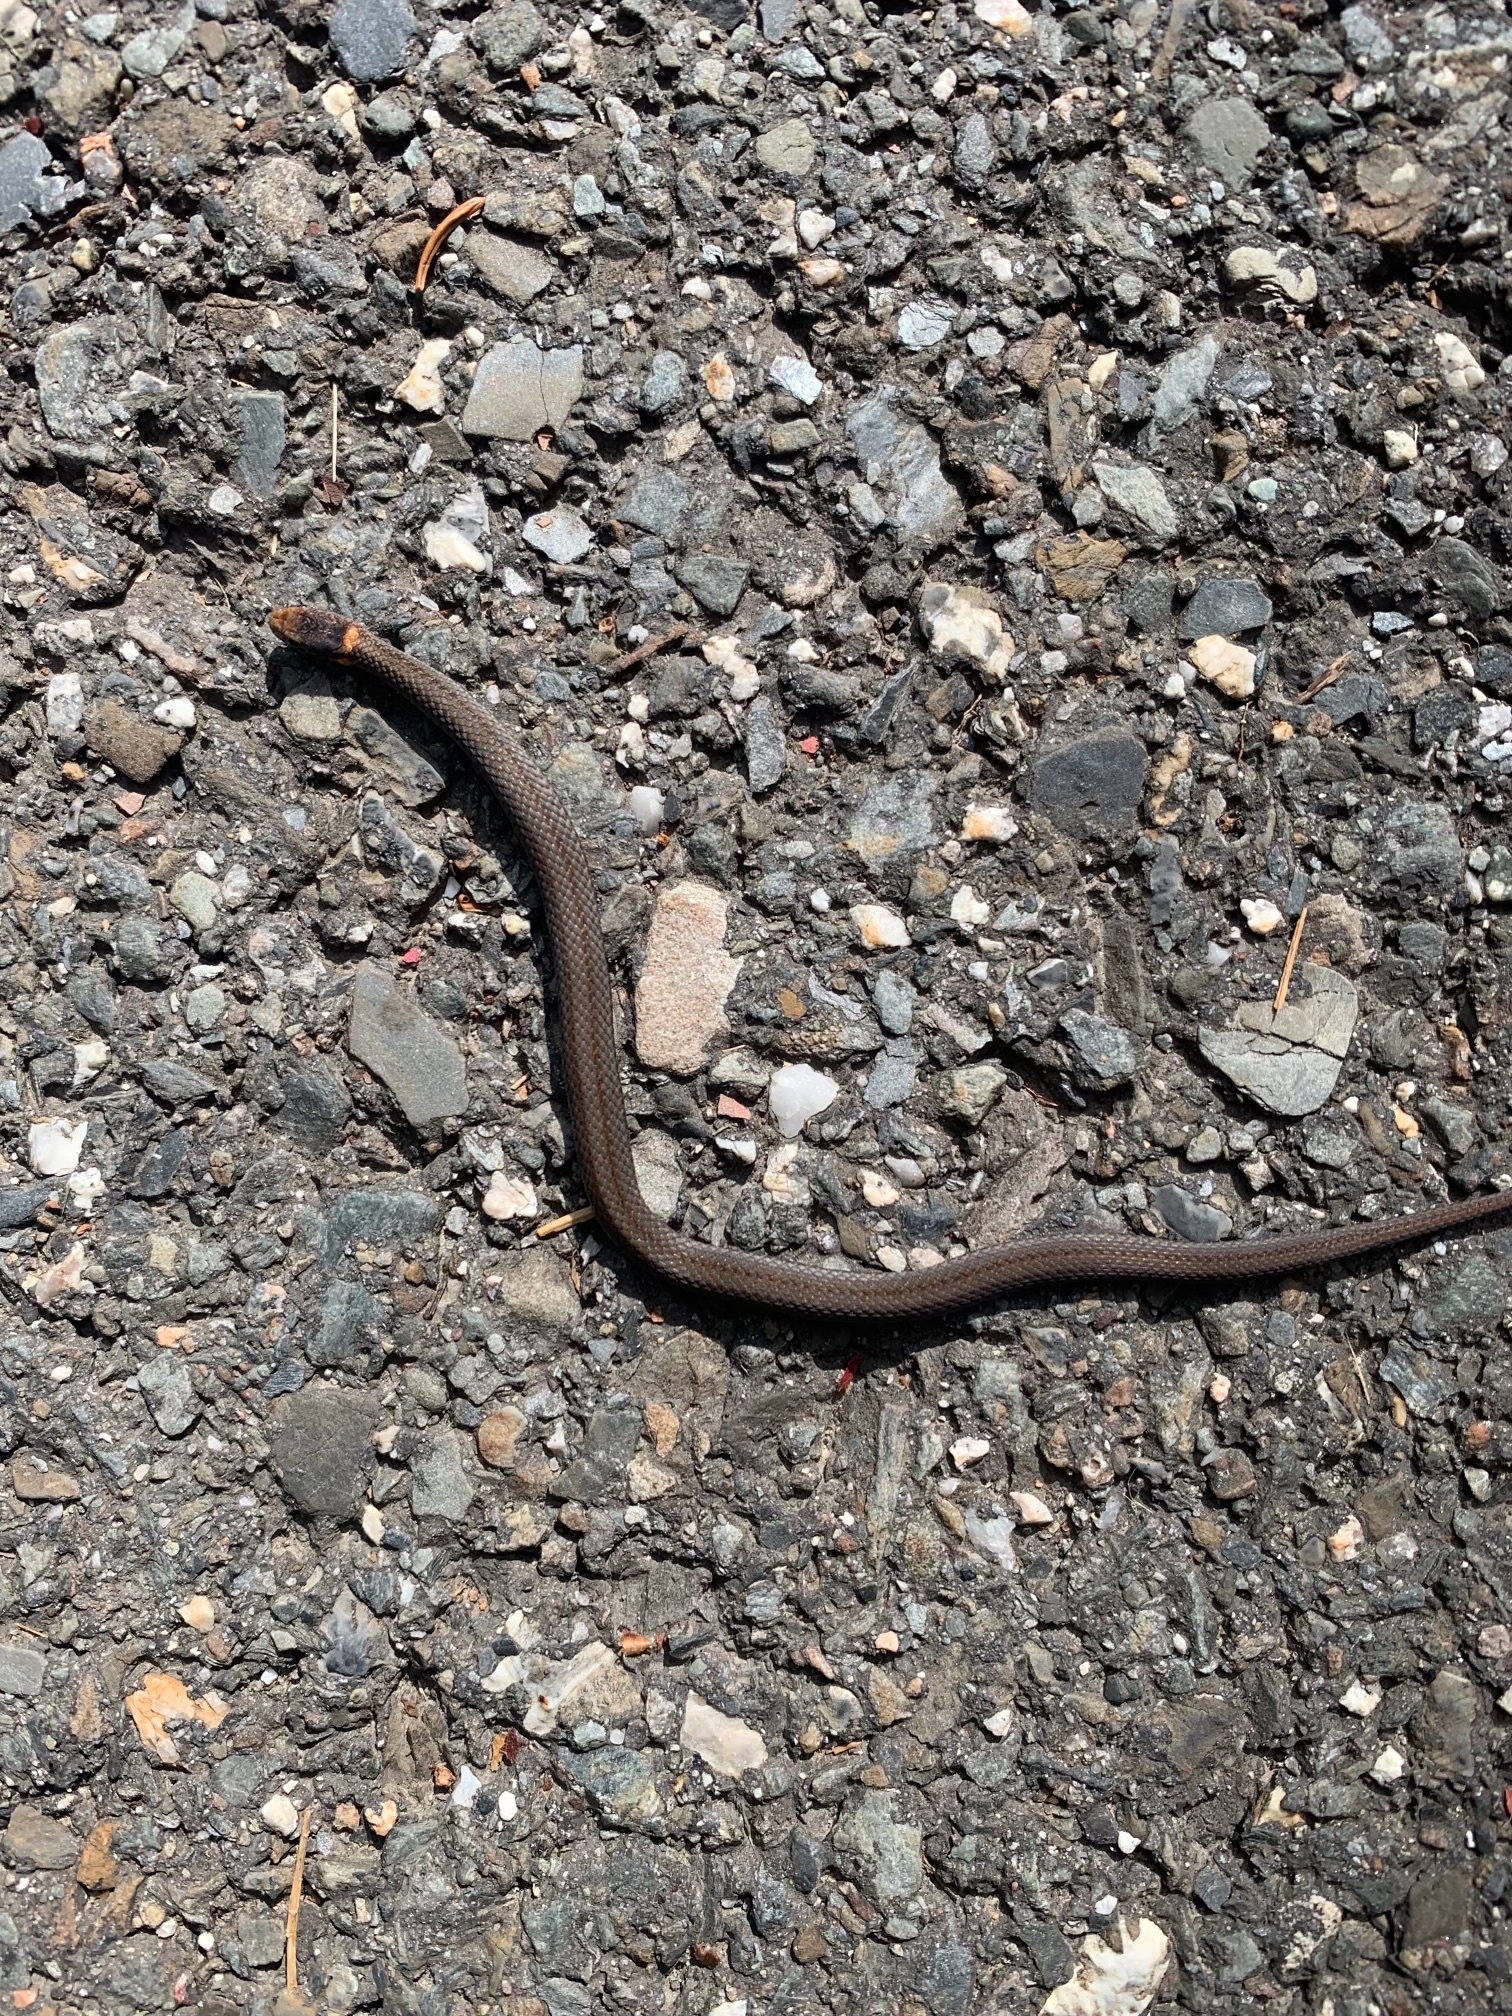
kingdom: Animalia
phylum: Chordata
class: Squamata
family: Colubridae
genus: Storeria
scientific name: Storeria occipitomaculata
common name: Redbelly snake
